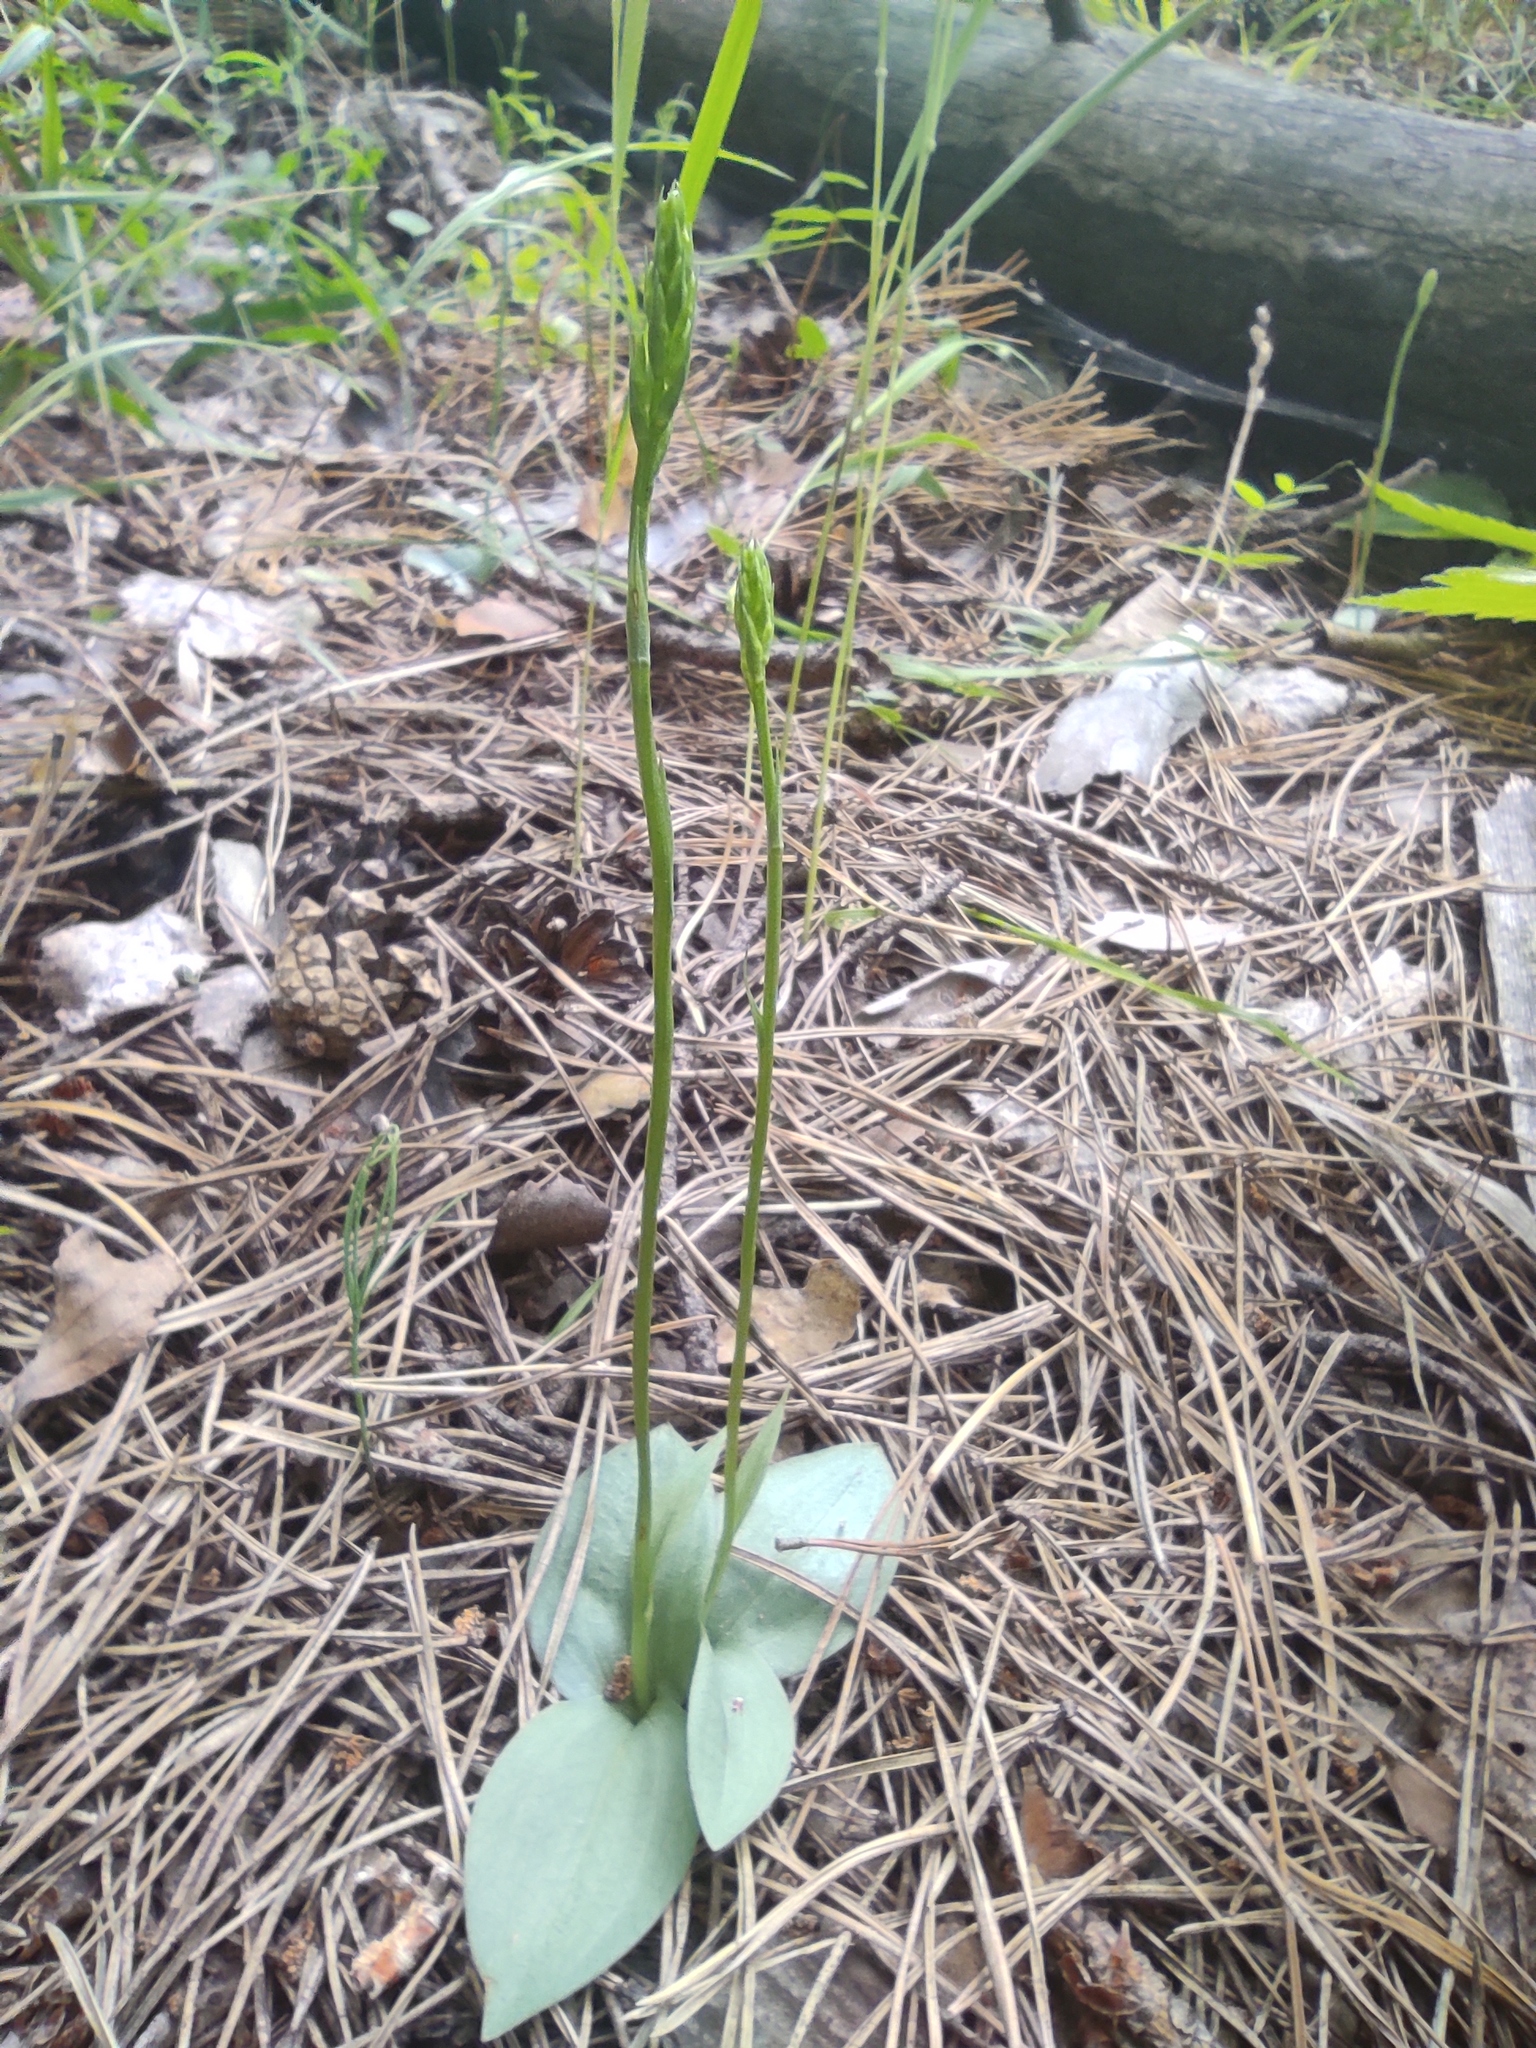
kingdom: Plantae
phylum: Tracheophyta
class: Liliopsida
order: Asparagales
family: Orchidaceae
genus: Hemipilia
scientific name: Hemipilia cucullata
